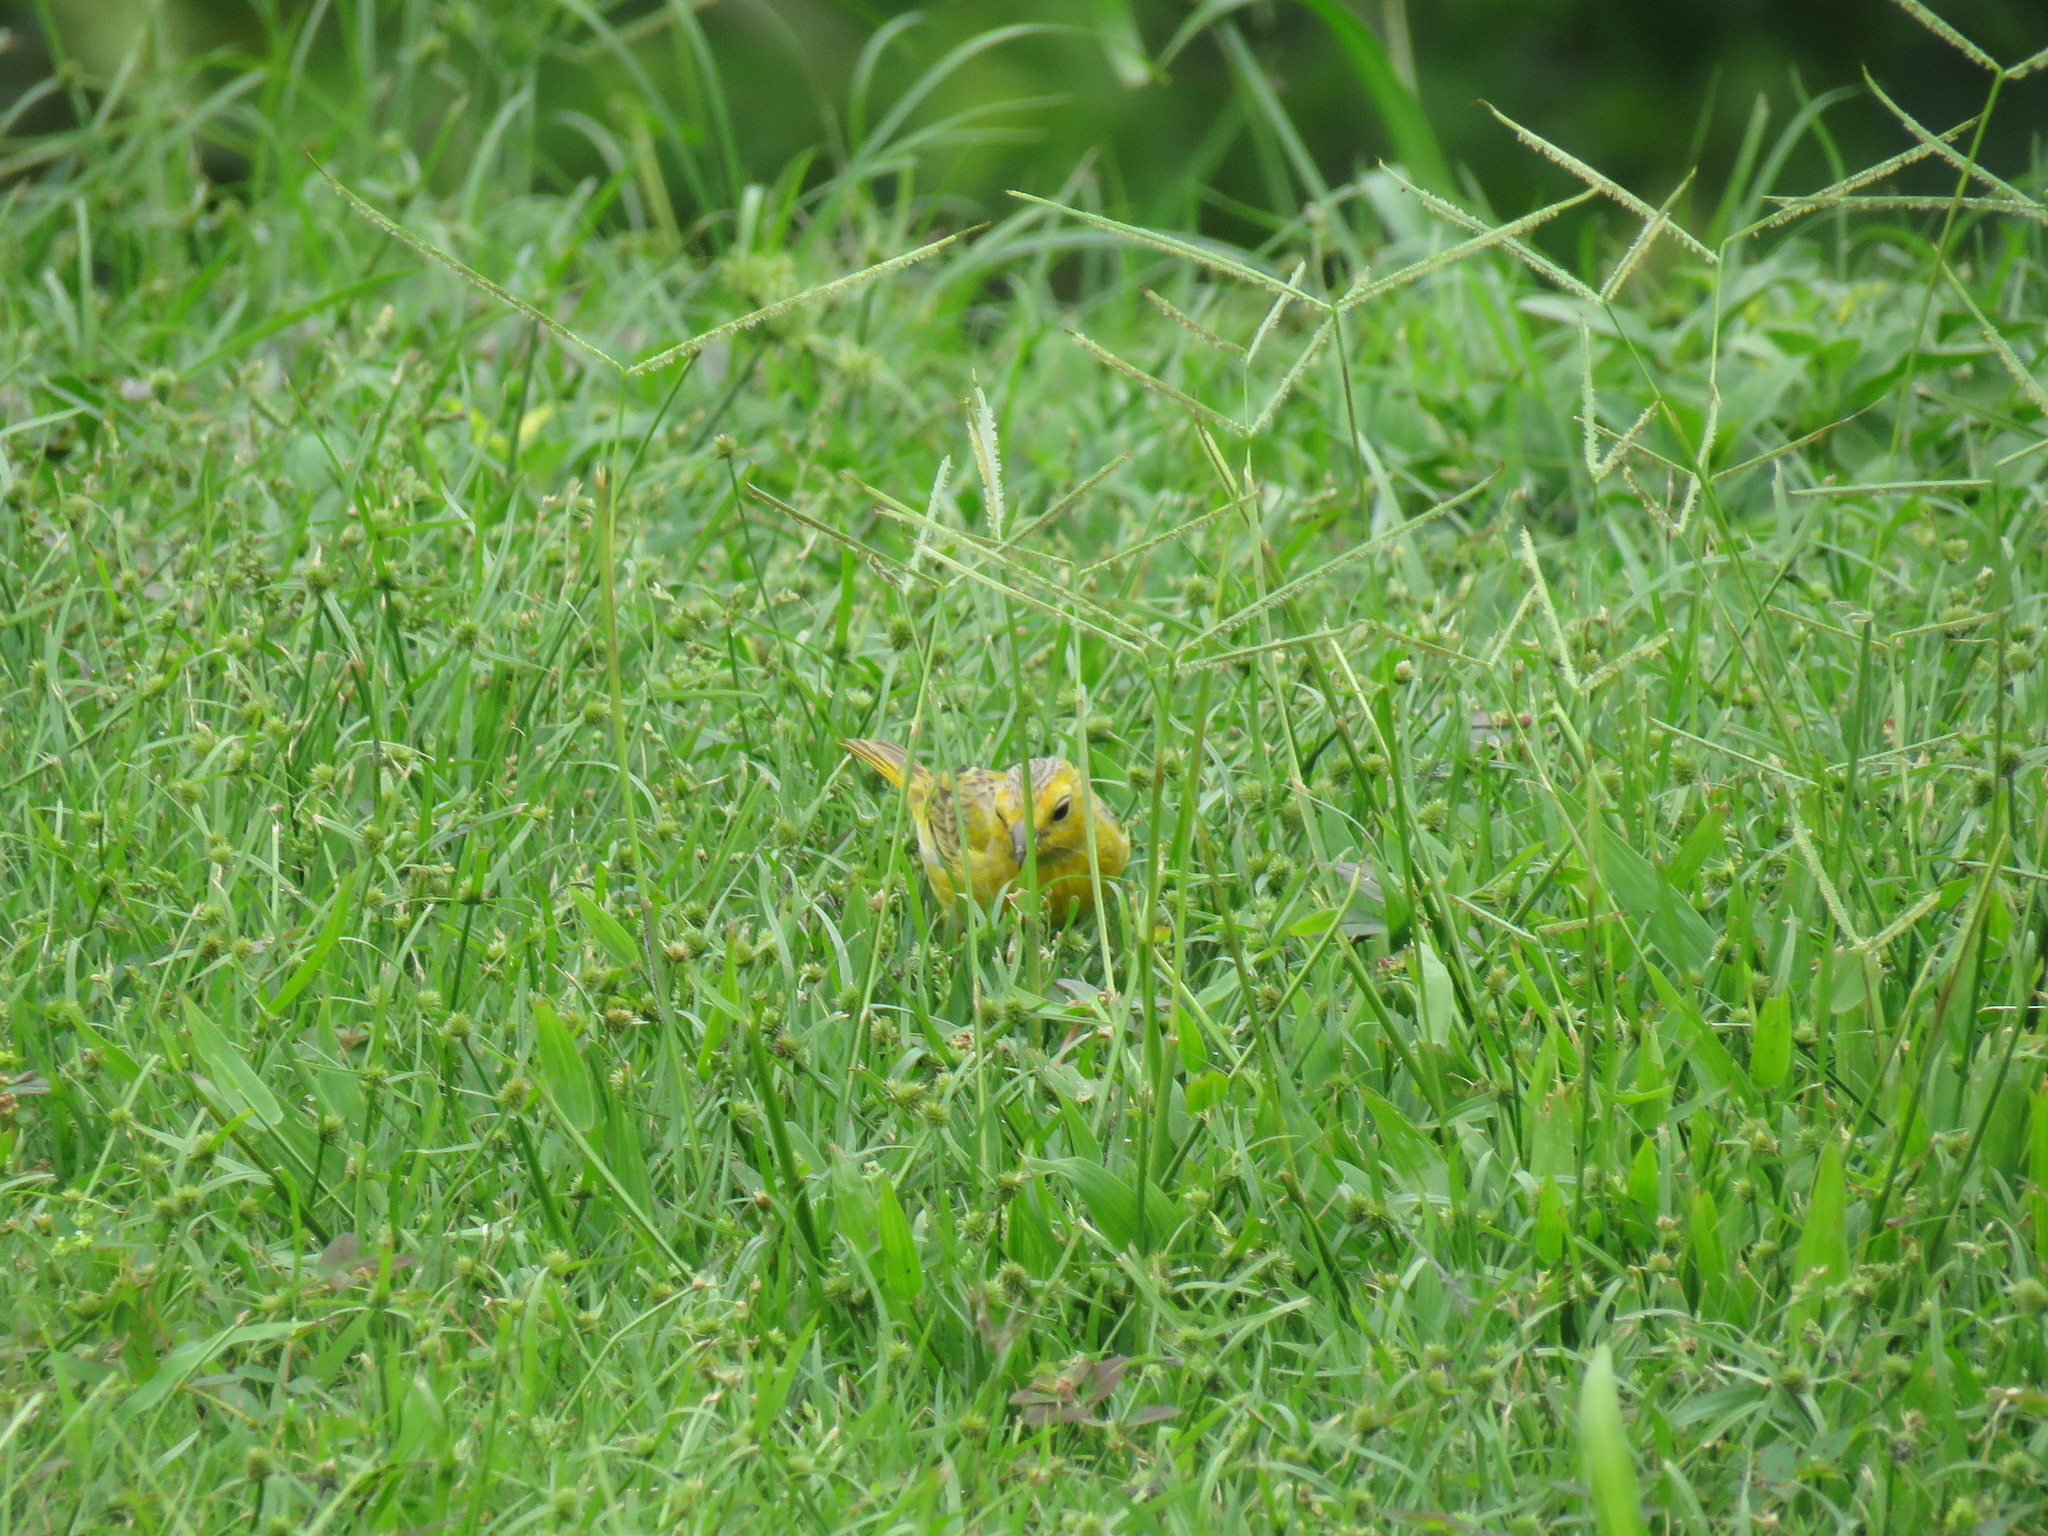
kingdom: Animalia
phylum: Chordata
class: Aves
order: Passeriformes
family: Thraupidae
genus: Sicalis
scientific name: Sicalis flaveola
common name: Saffron finch
